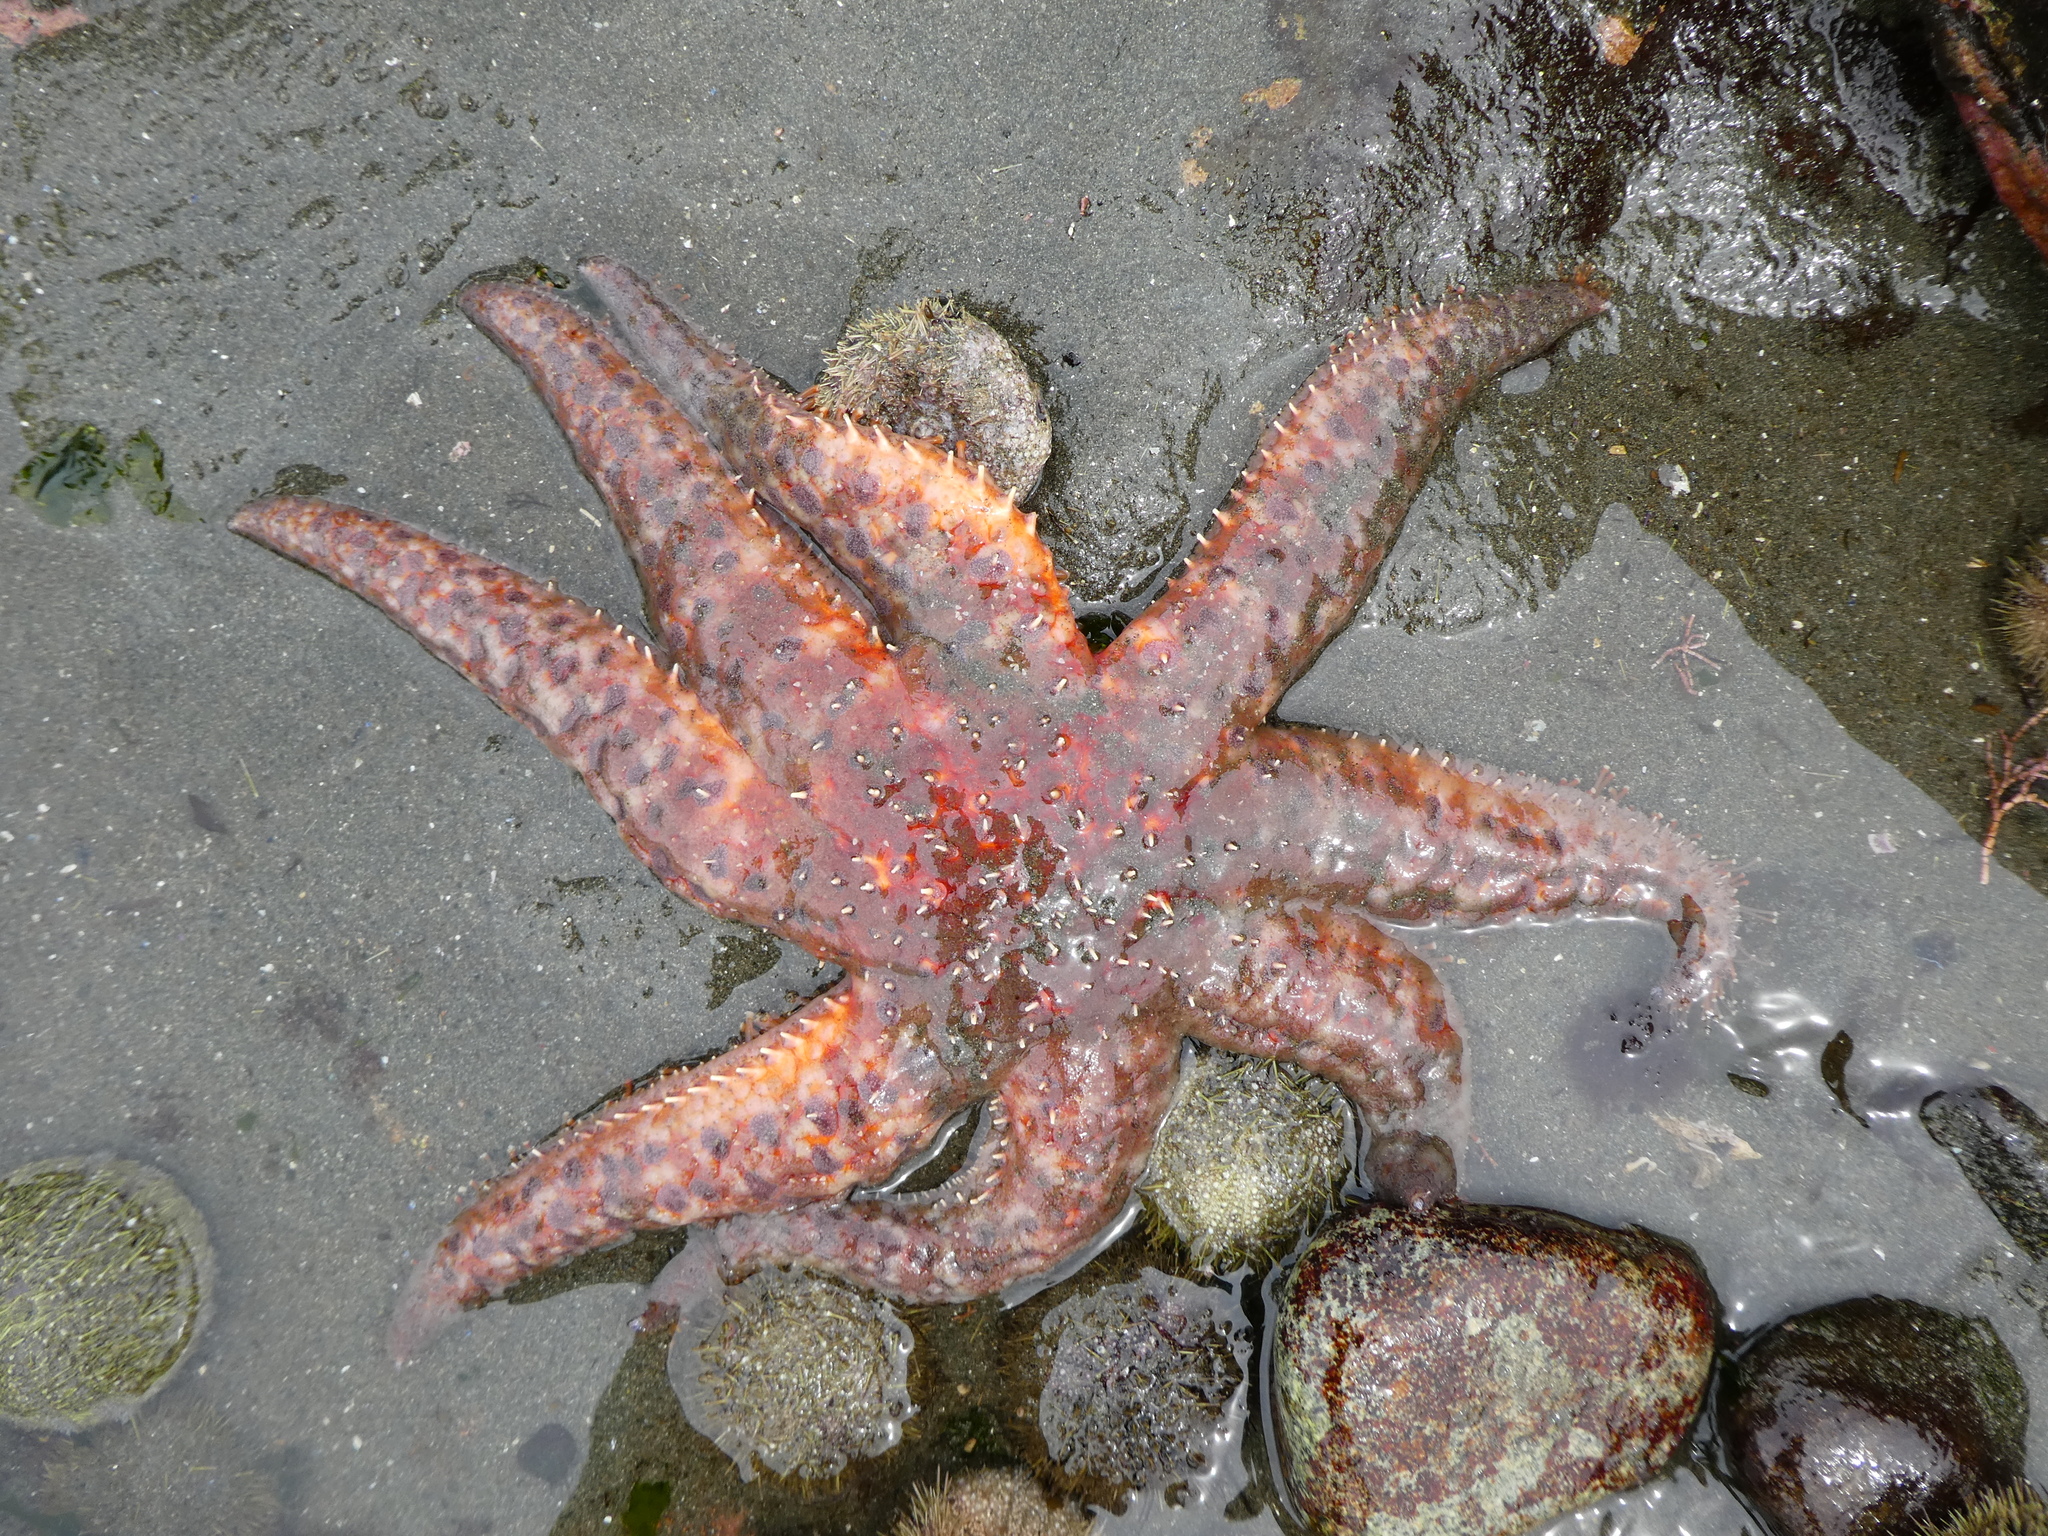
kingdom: Animalia
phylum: Echinodermata
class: Asteroidea
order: Forcipulatida
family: Asteriidae
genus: Pycnopodia
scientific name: Pycnopodia helianthoides
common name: Rag mop
